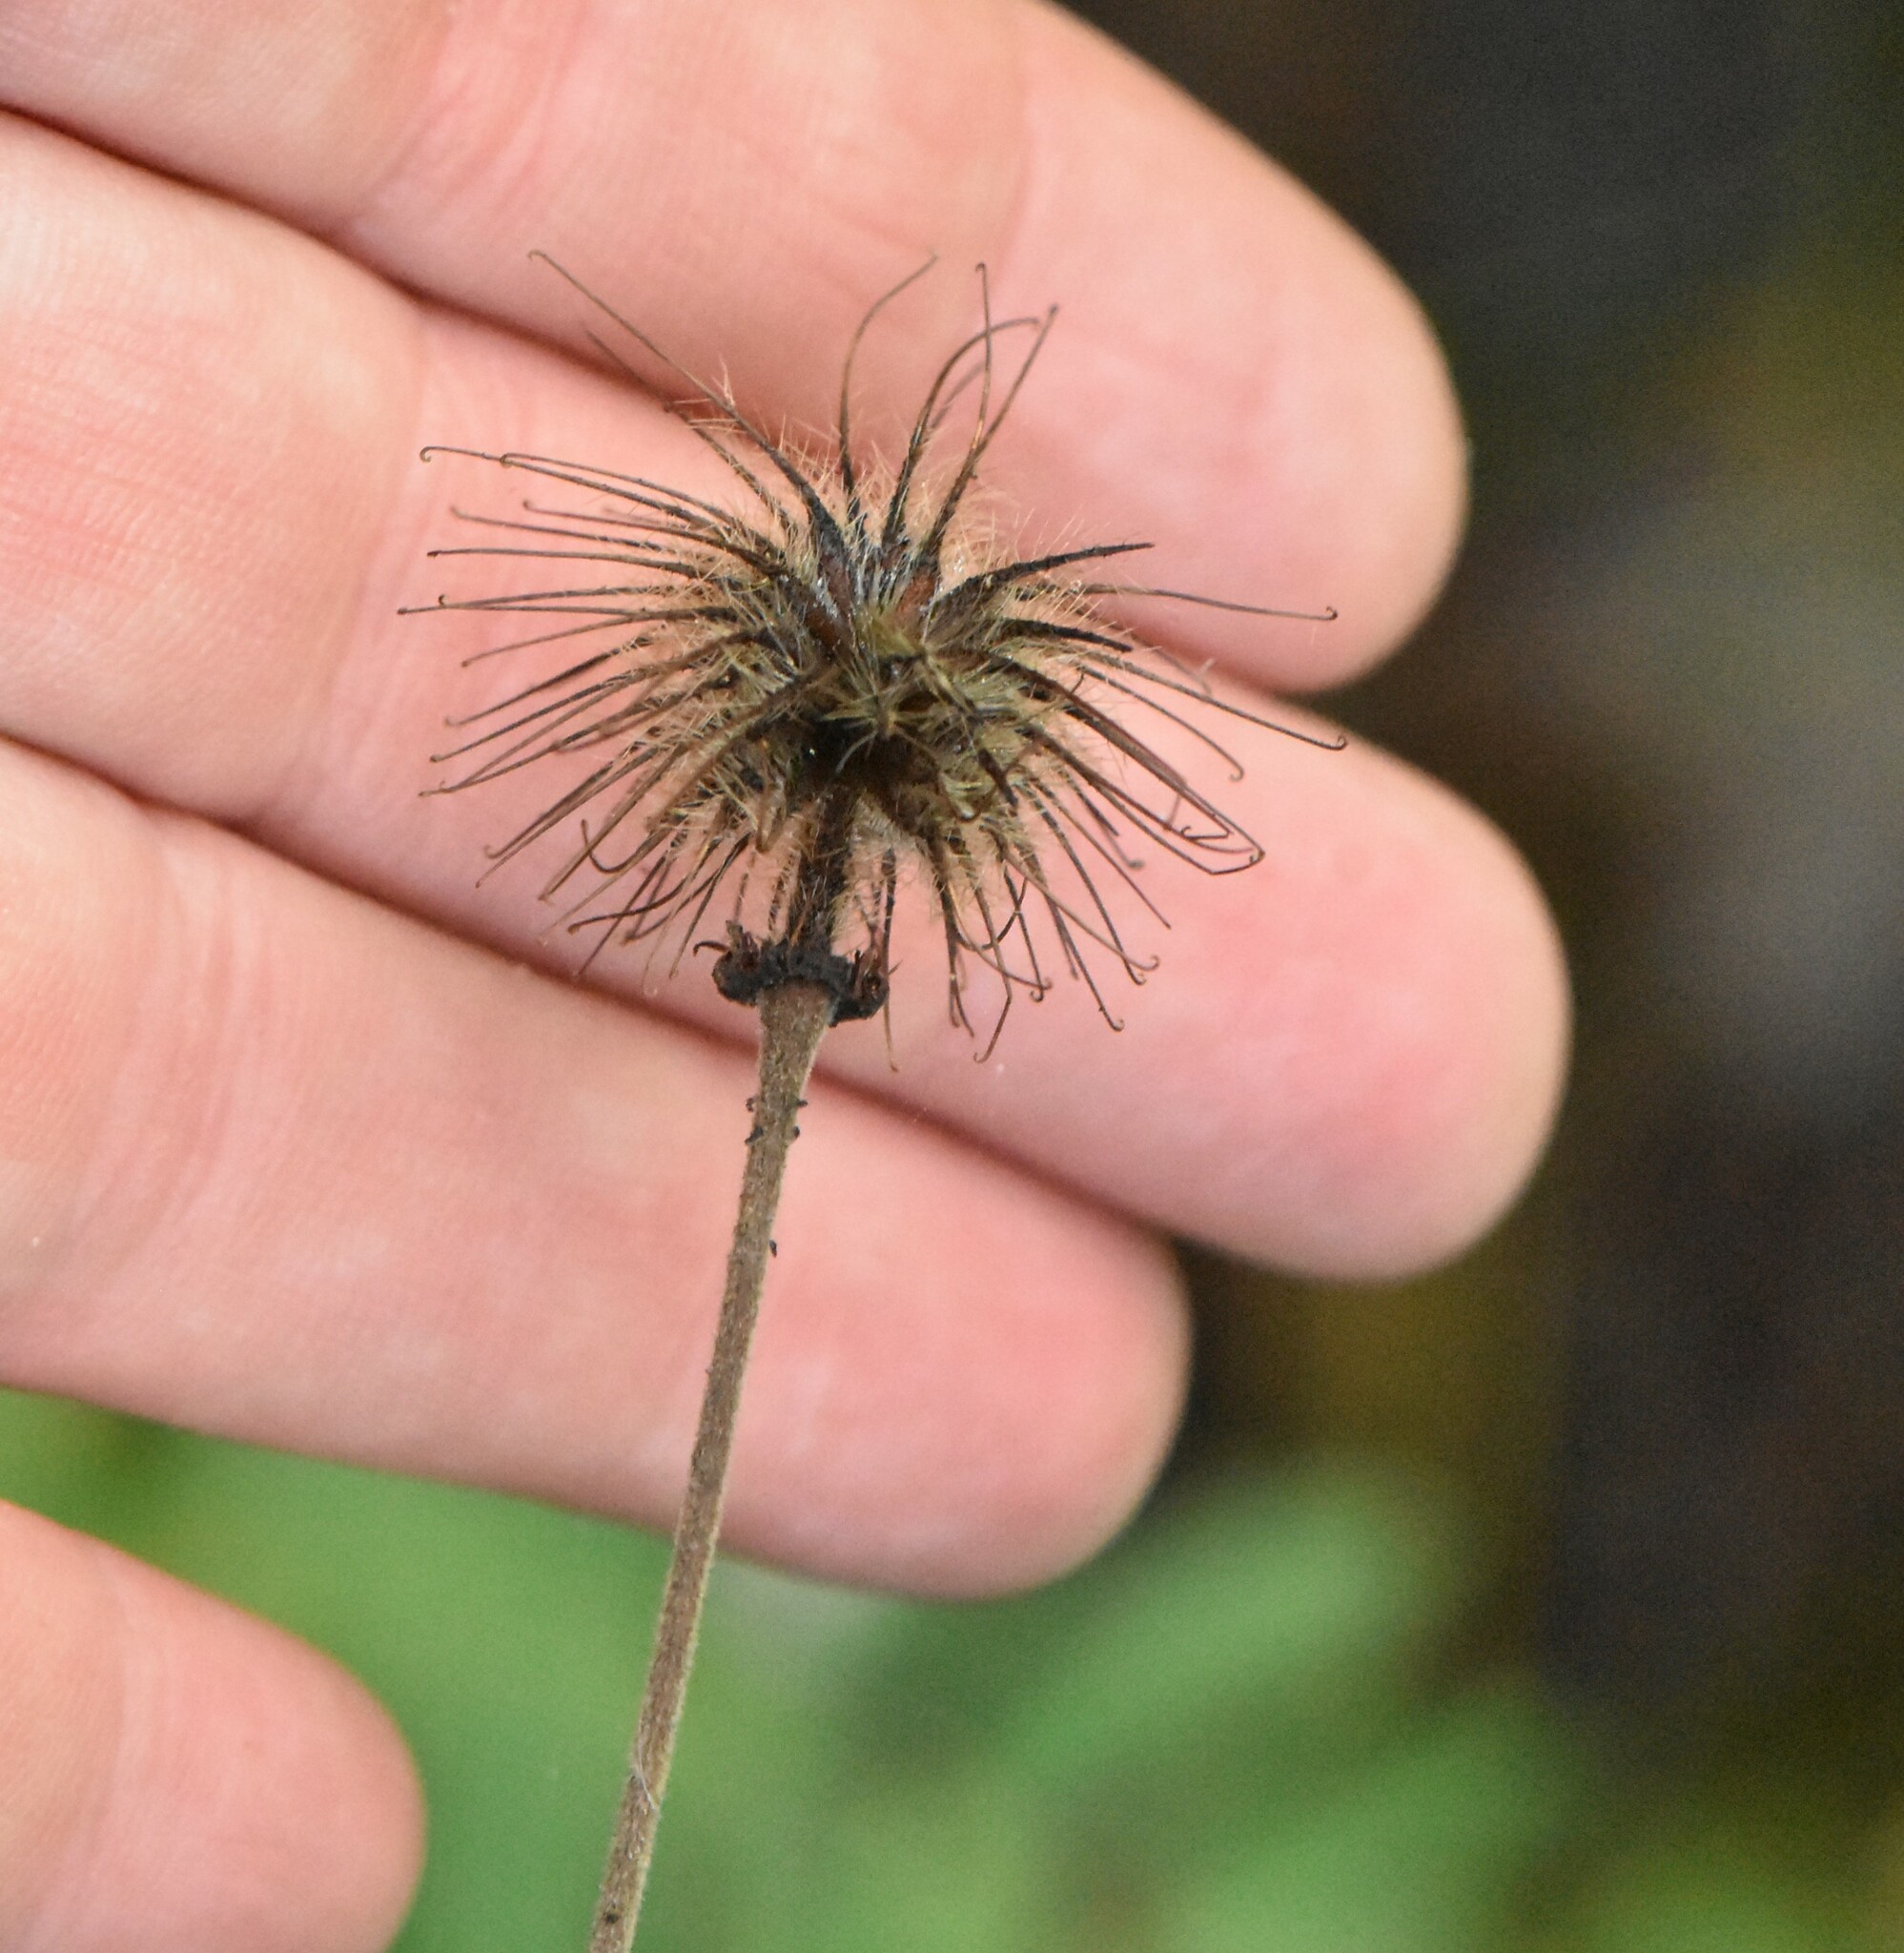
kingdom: Plantae
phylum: Tracheophyta
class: Magnoliopsida
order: Rosales
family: Rosaceae
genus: Geum
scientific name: Geum urbanum
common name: Wood avens
